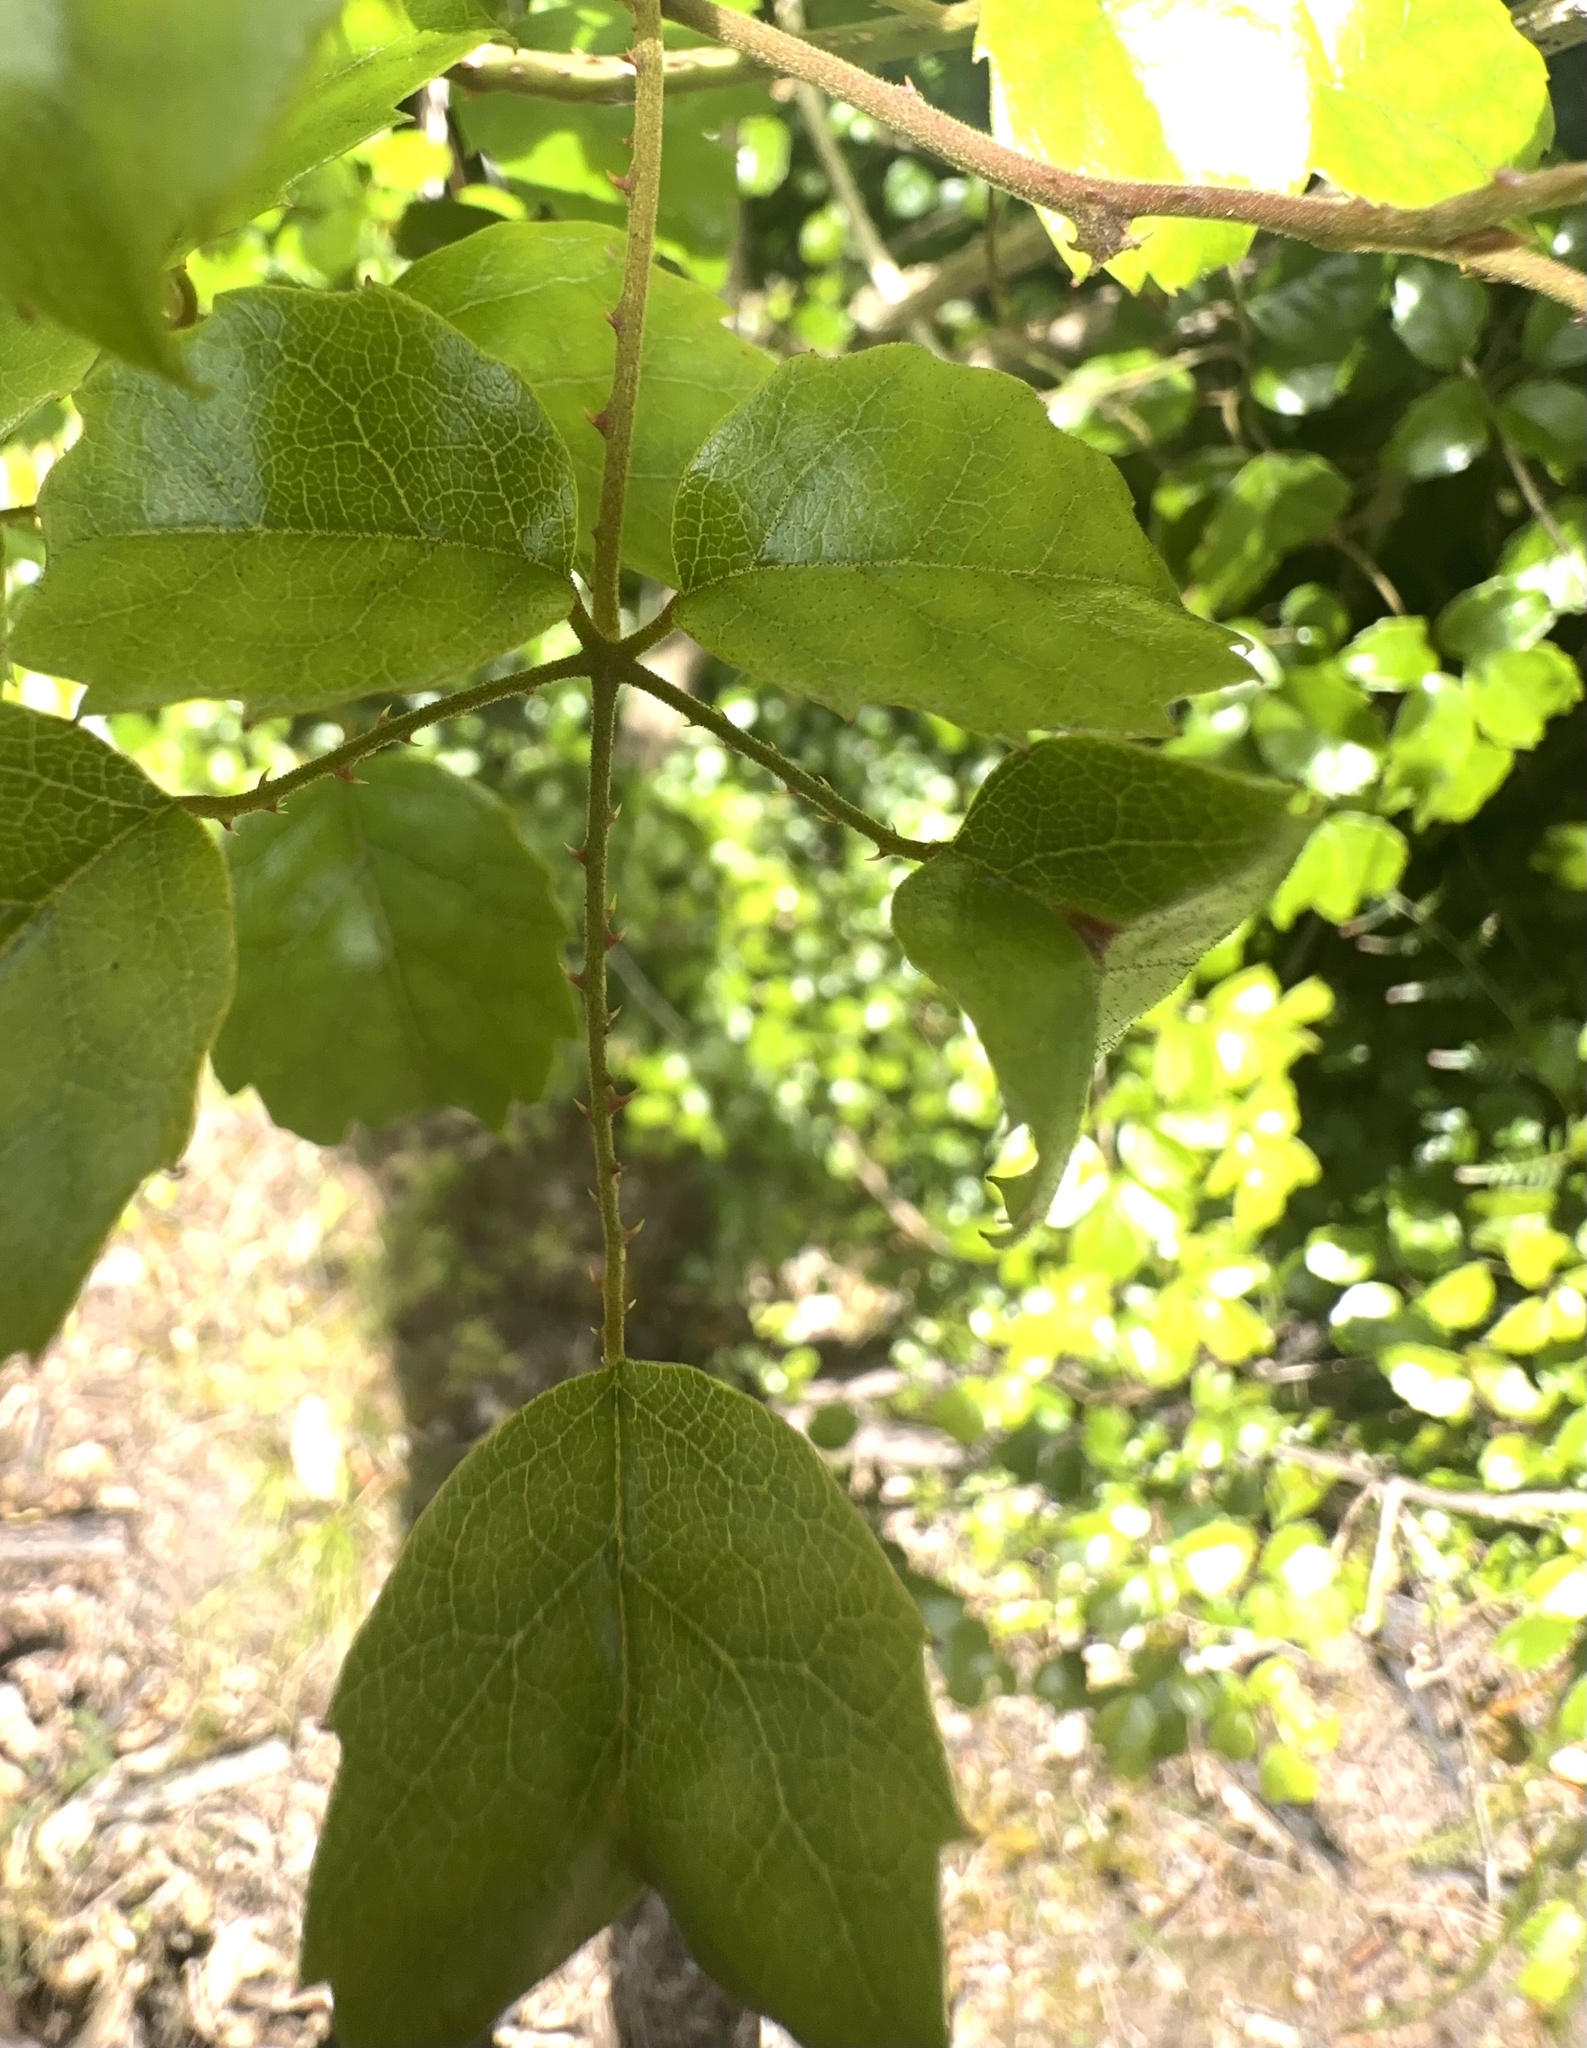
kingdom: Plantae
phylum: Tracheophyta
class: Magnoliopsida
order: Rosales
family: Rosaceae
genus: Rubus
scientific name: Rubus australis
